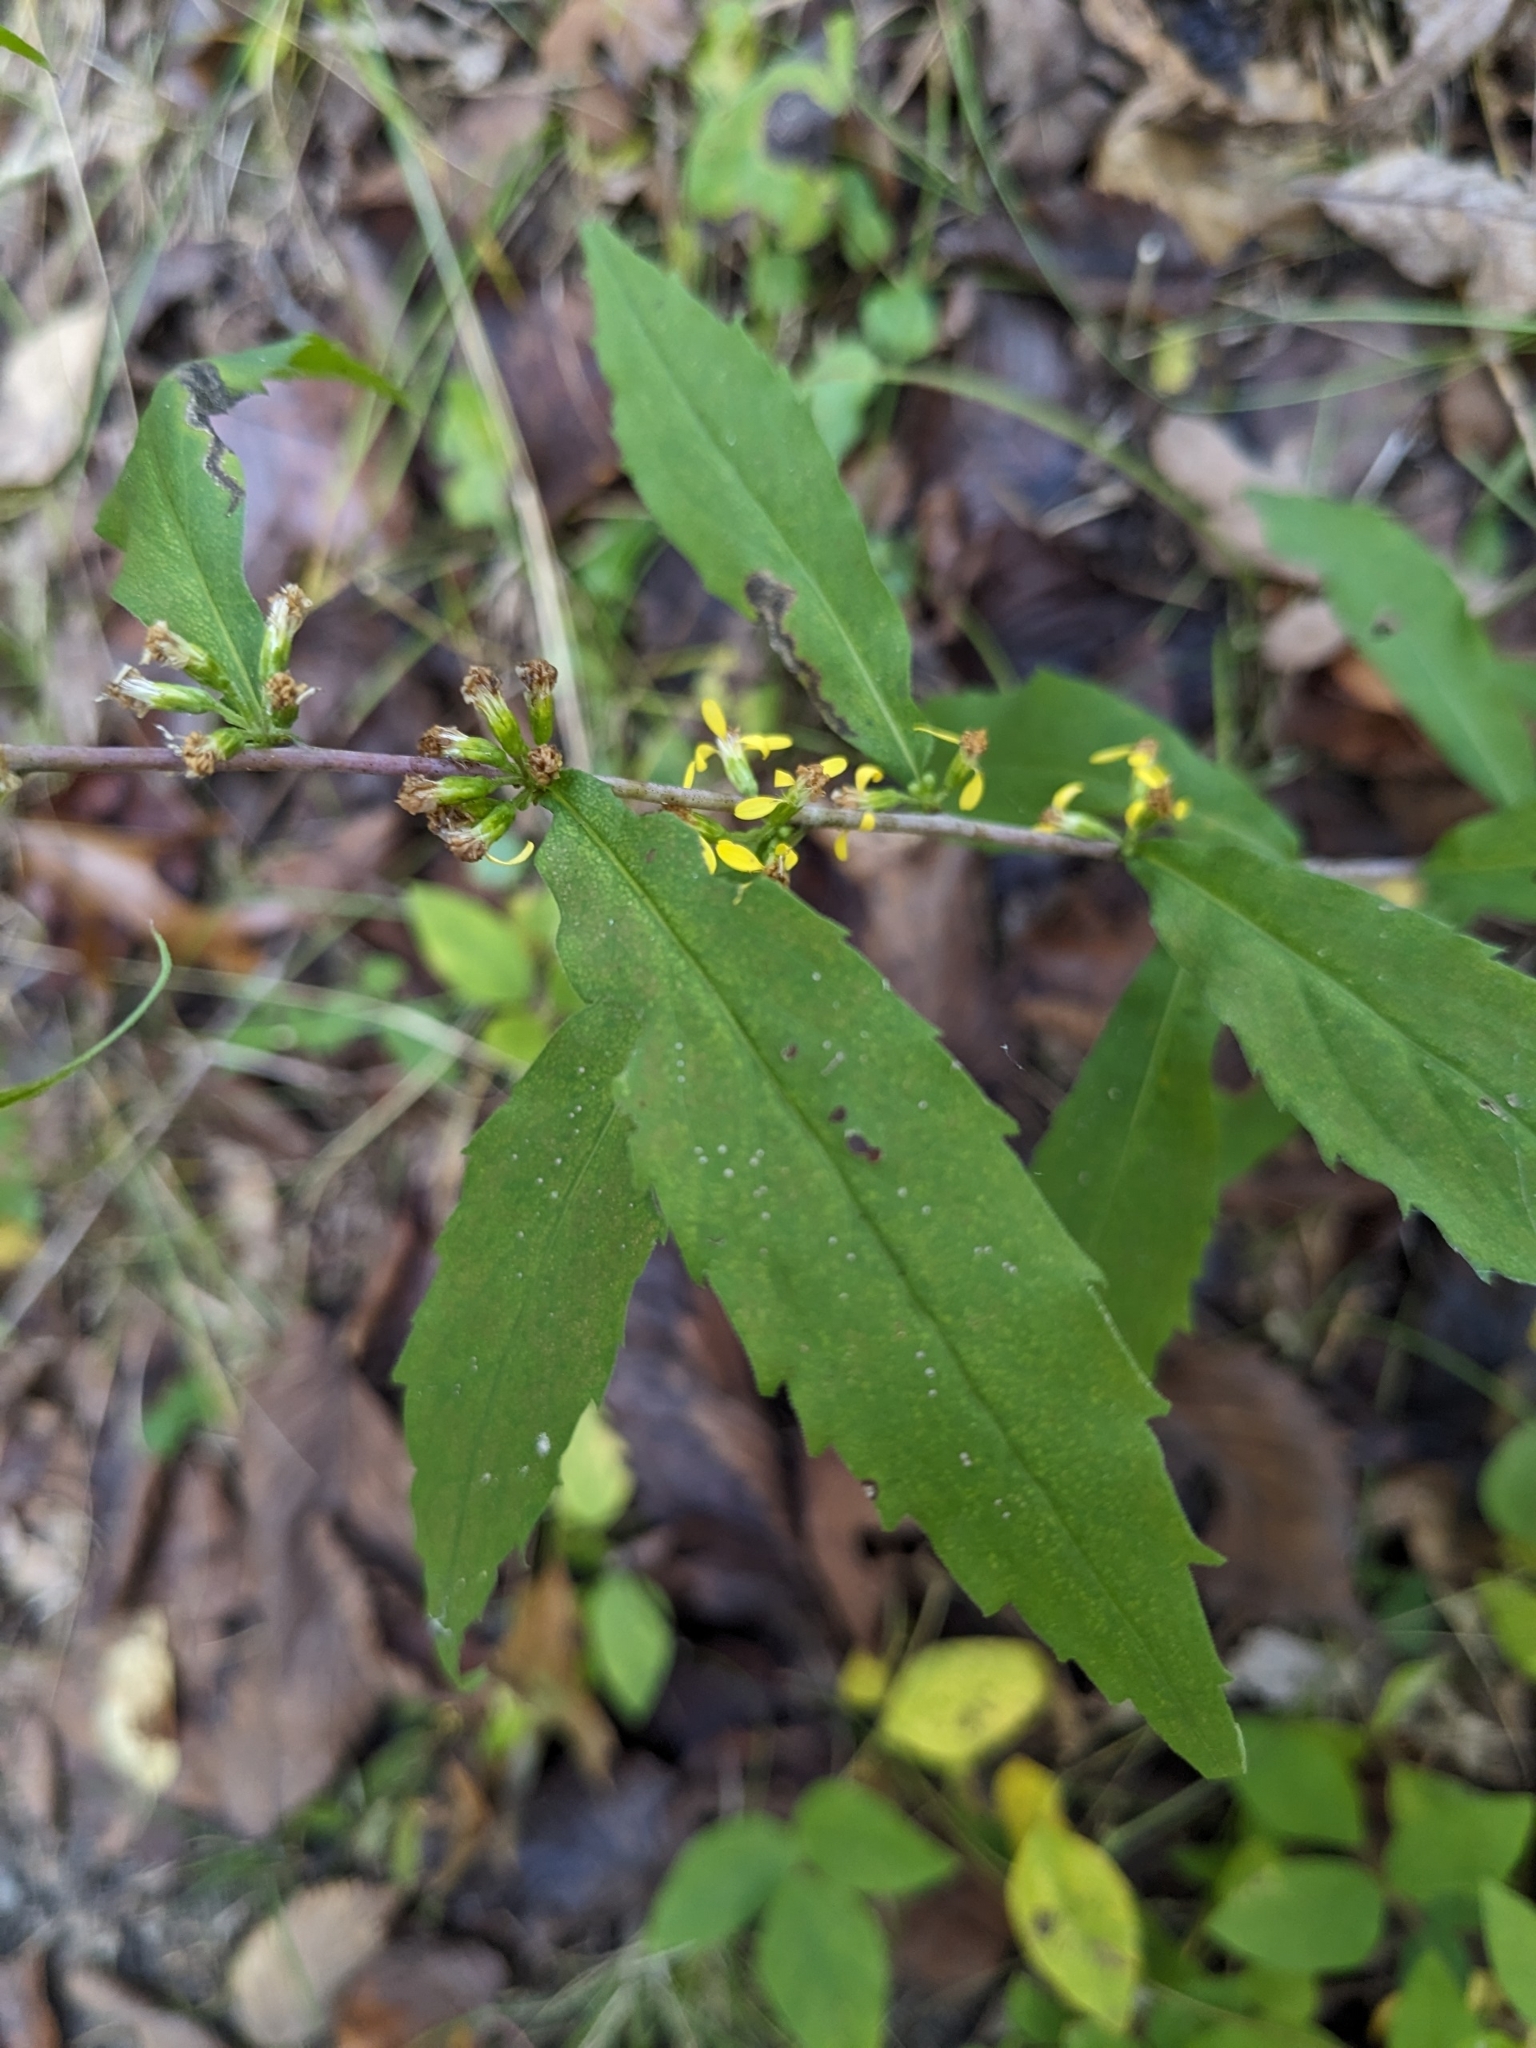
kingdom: Plantae
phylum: Tracheophyta
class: Magnoliopsida
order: Asterales
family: Asteraceae
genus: Solidago
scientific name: Solidago caesia
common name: Woodland goldenrod
